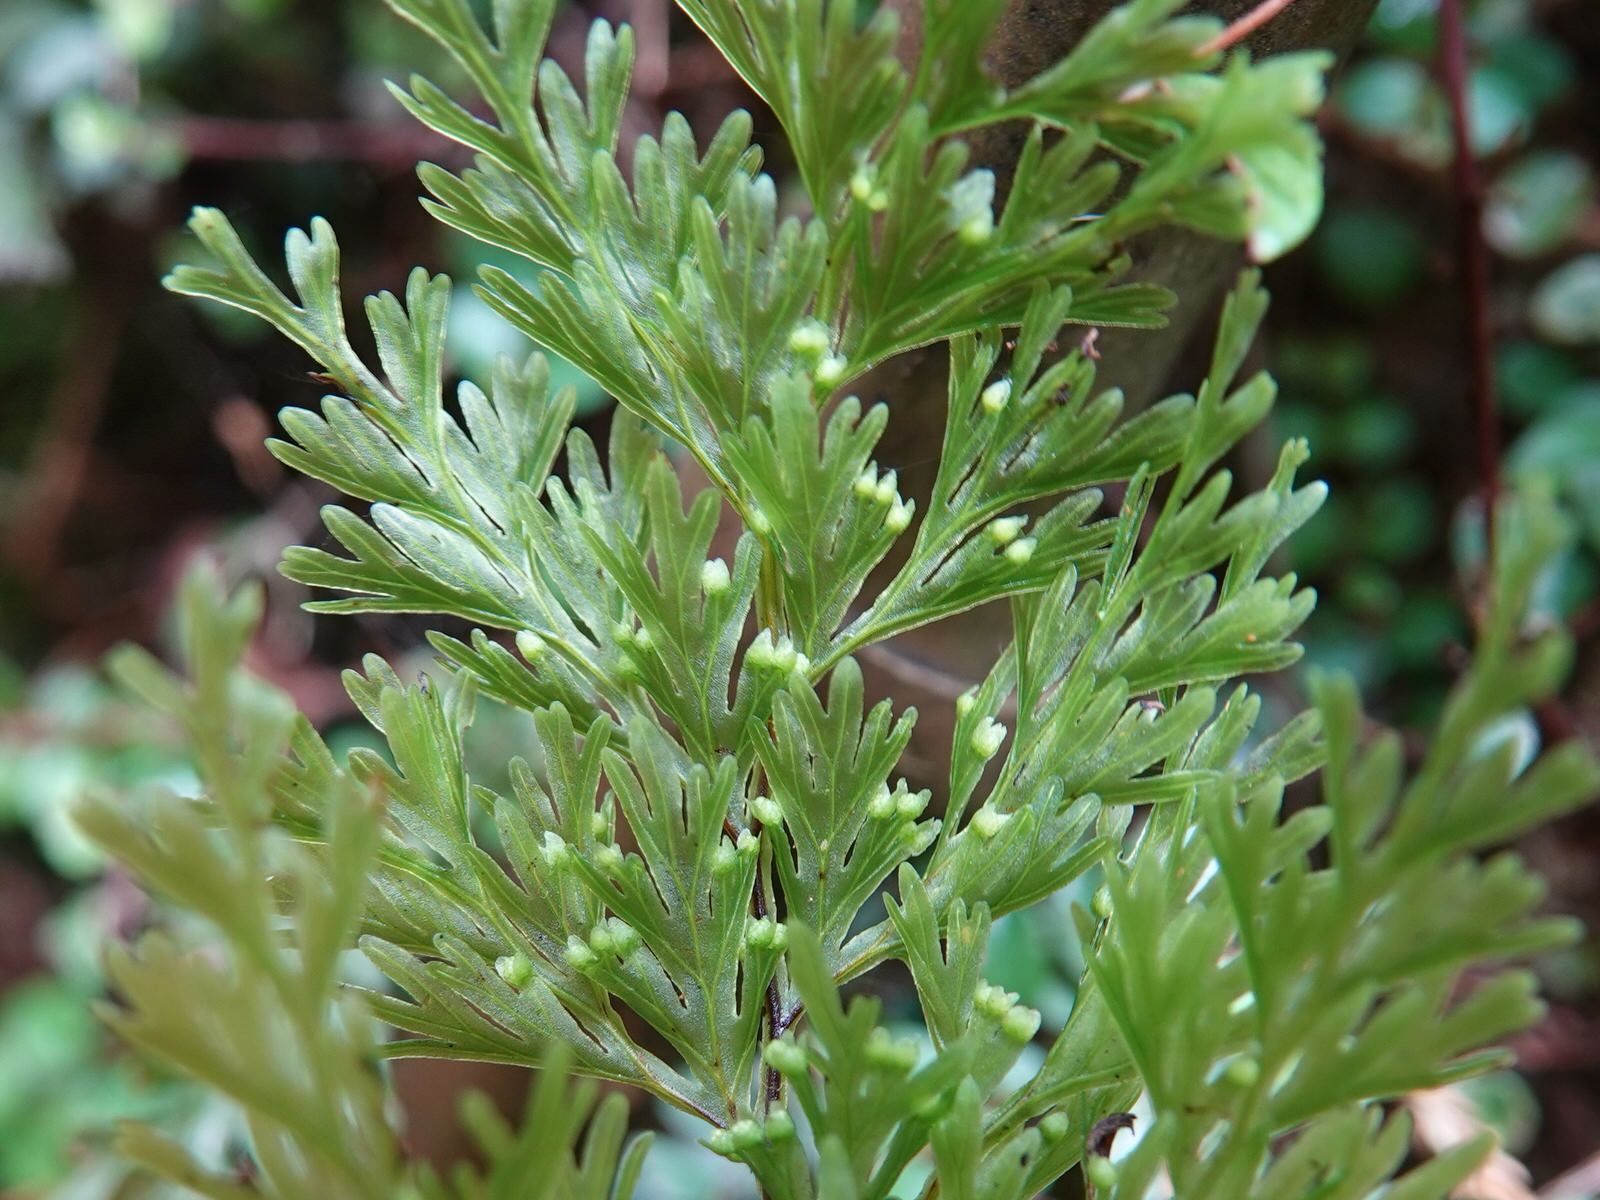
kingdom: Plantae
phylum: Tracheophyta
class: Polypodiopsida
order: Hymenophyllales
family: Hymenophyllaceae
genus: Hymenophyllum
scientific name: Hymenophyllum demissum
